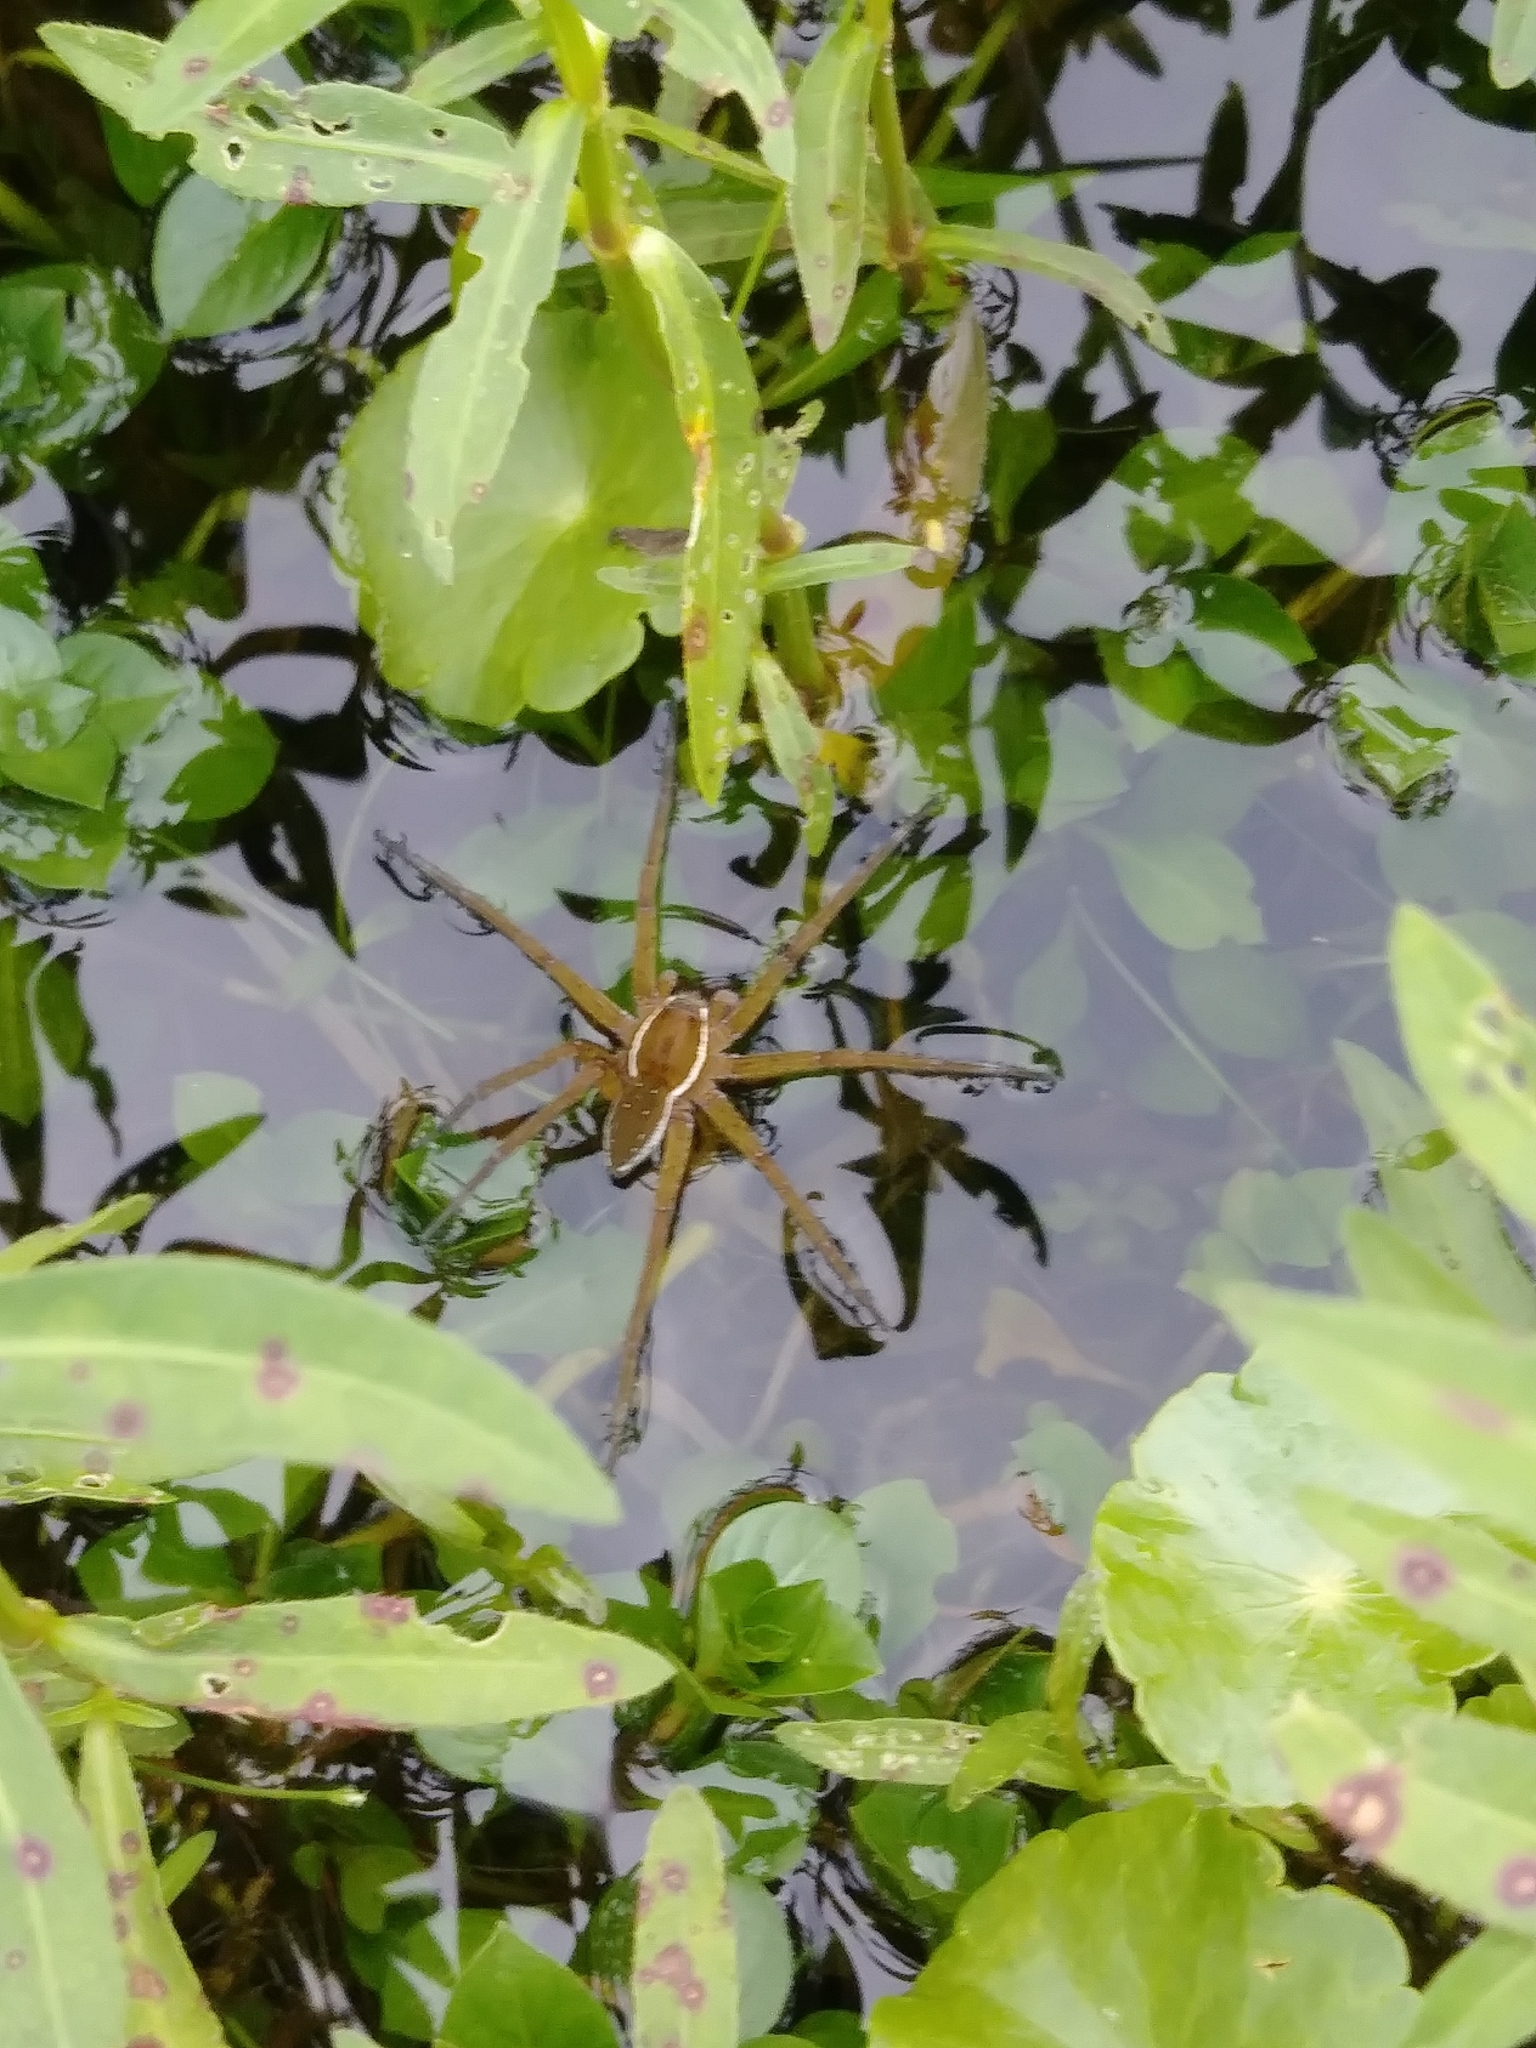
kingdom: Animalia
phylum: Arthropoda
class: Arachnida
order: Araneae
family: Pisauridae
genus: Dolomedes
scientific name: Dolomedes triton
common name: Six-spotted fishing spider
